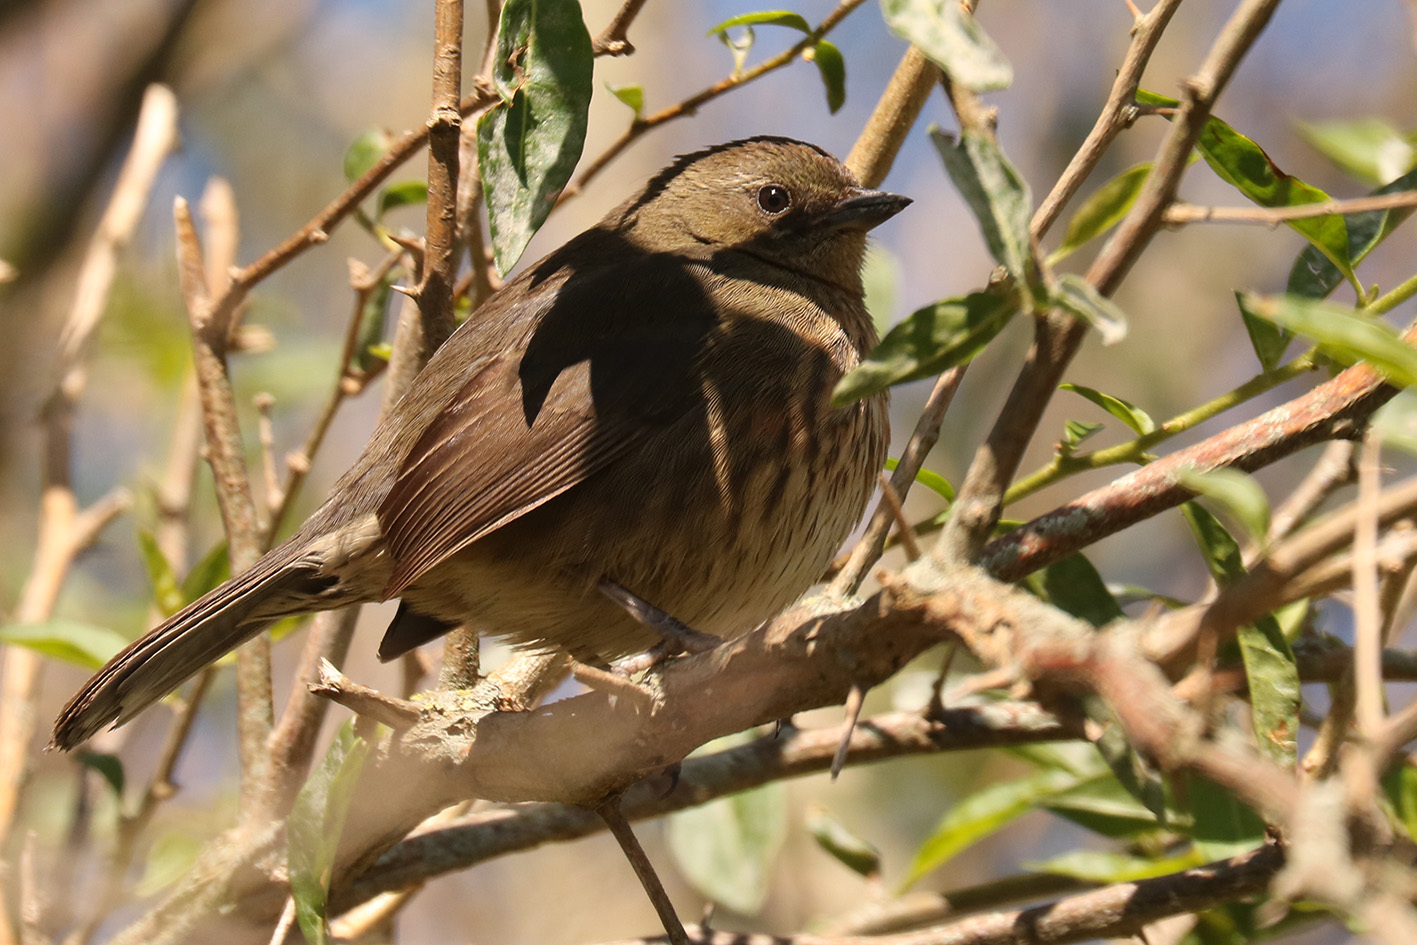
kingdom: Animalia
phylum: Chordata
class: Aves
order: Passeriformes
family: Thraupidae
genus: Poospiza
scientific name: Poospiza nigrorufa
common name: Black-and-rufous warbling finch
